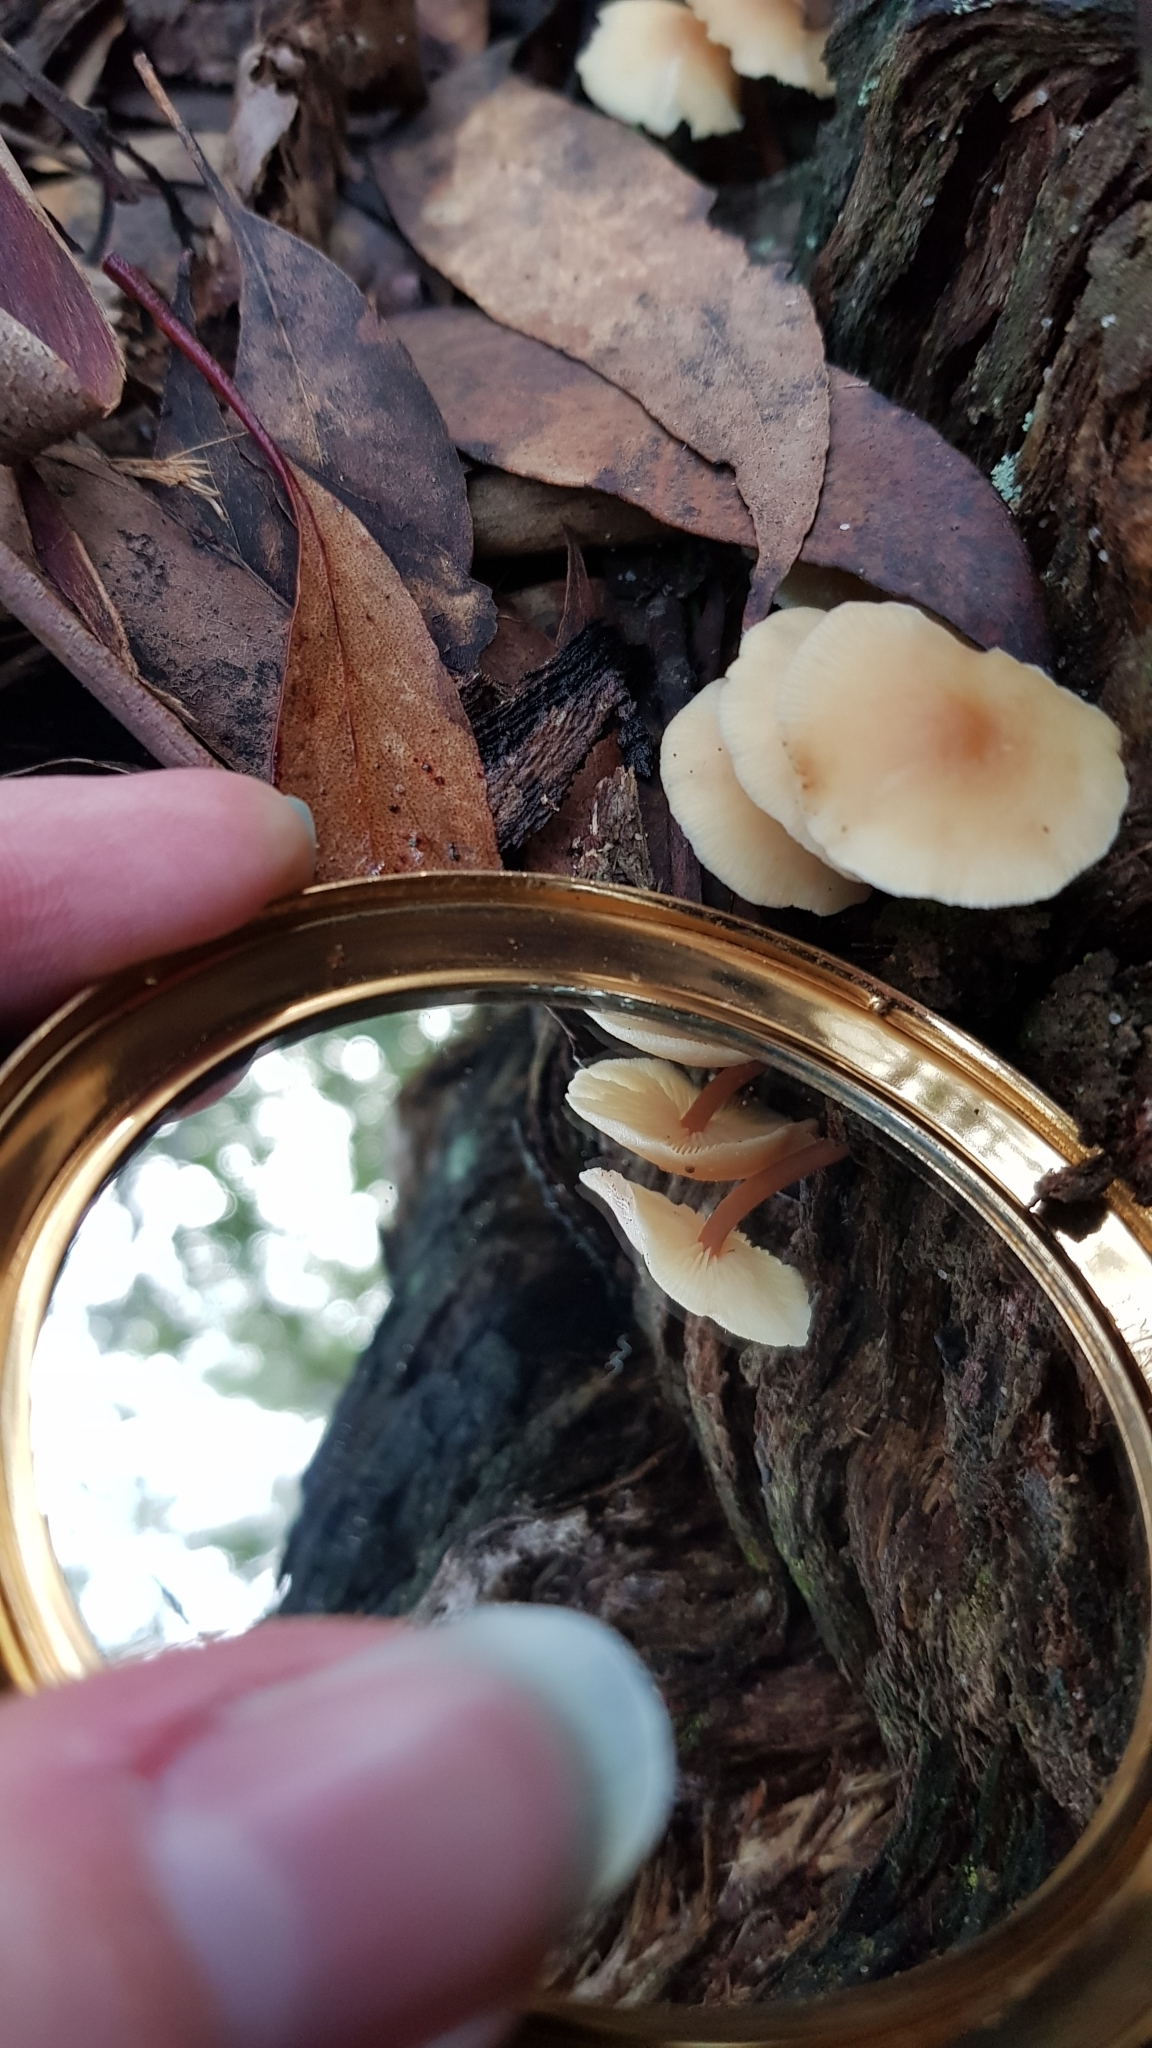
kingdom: Fungi
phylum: Basidiomycota
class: Agaricomycetes
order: Agaricales
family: Omphalotaceae
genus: Rhodocollybia
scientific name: Rhodocollybia
